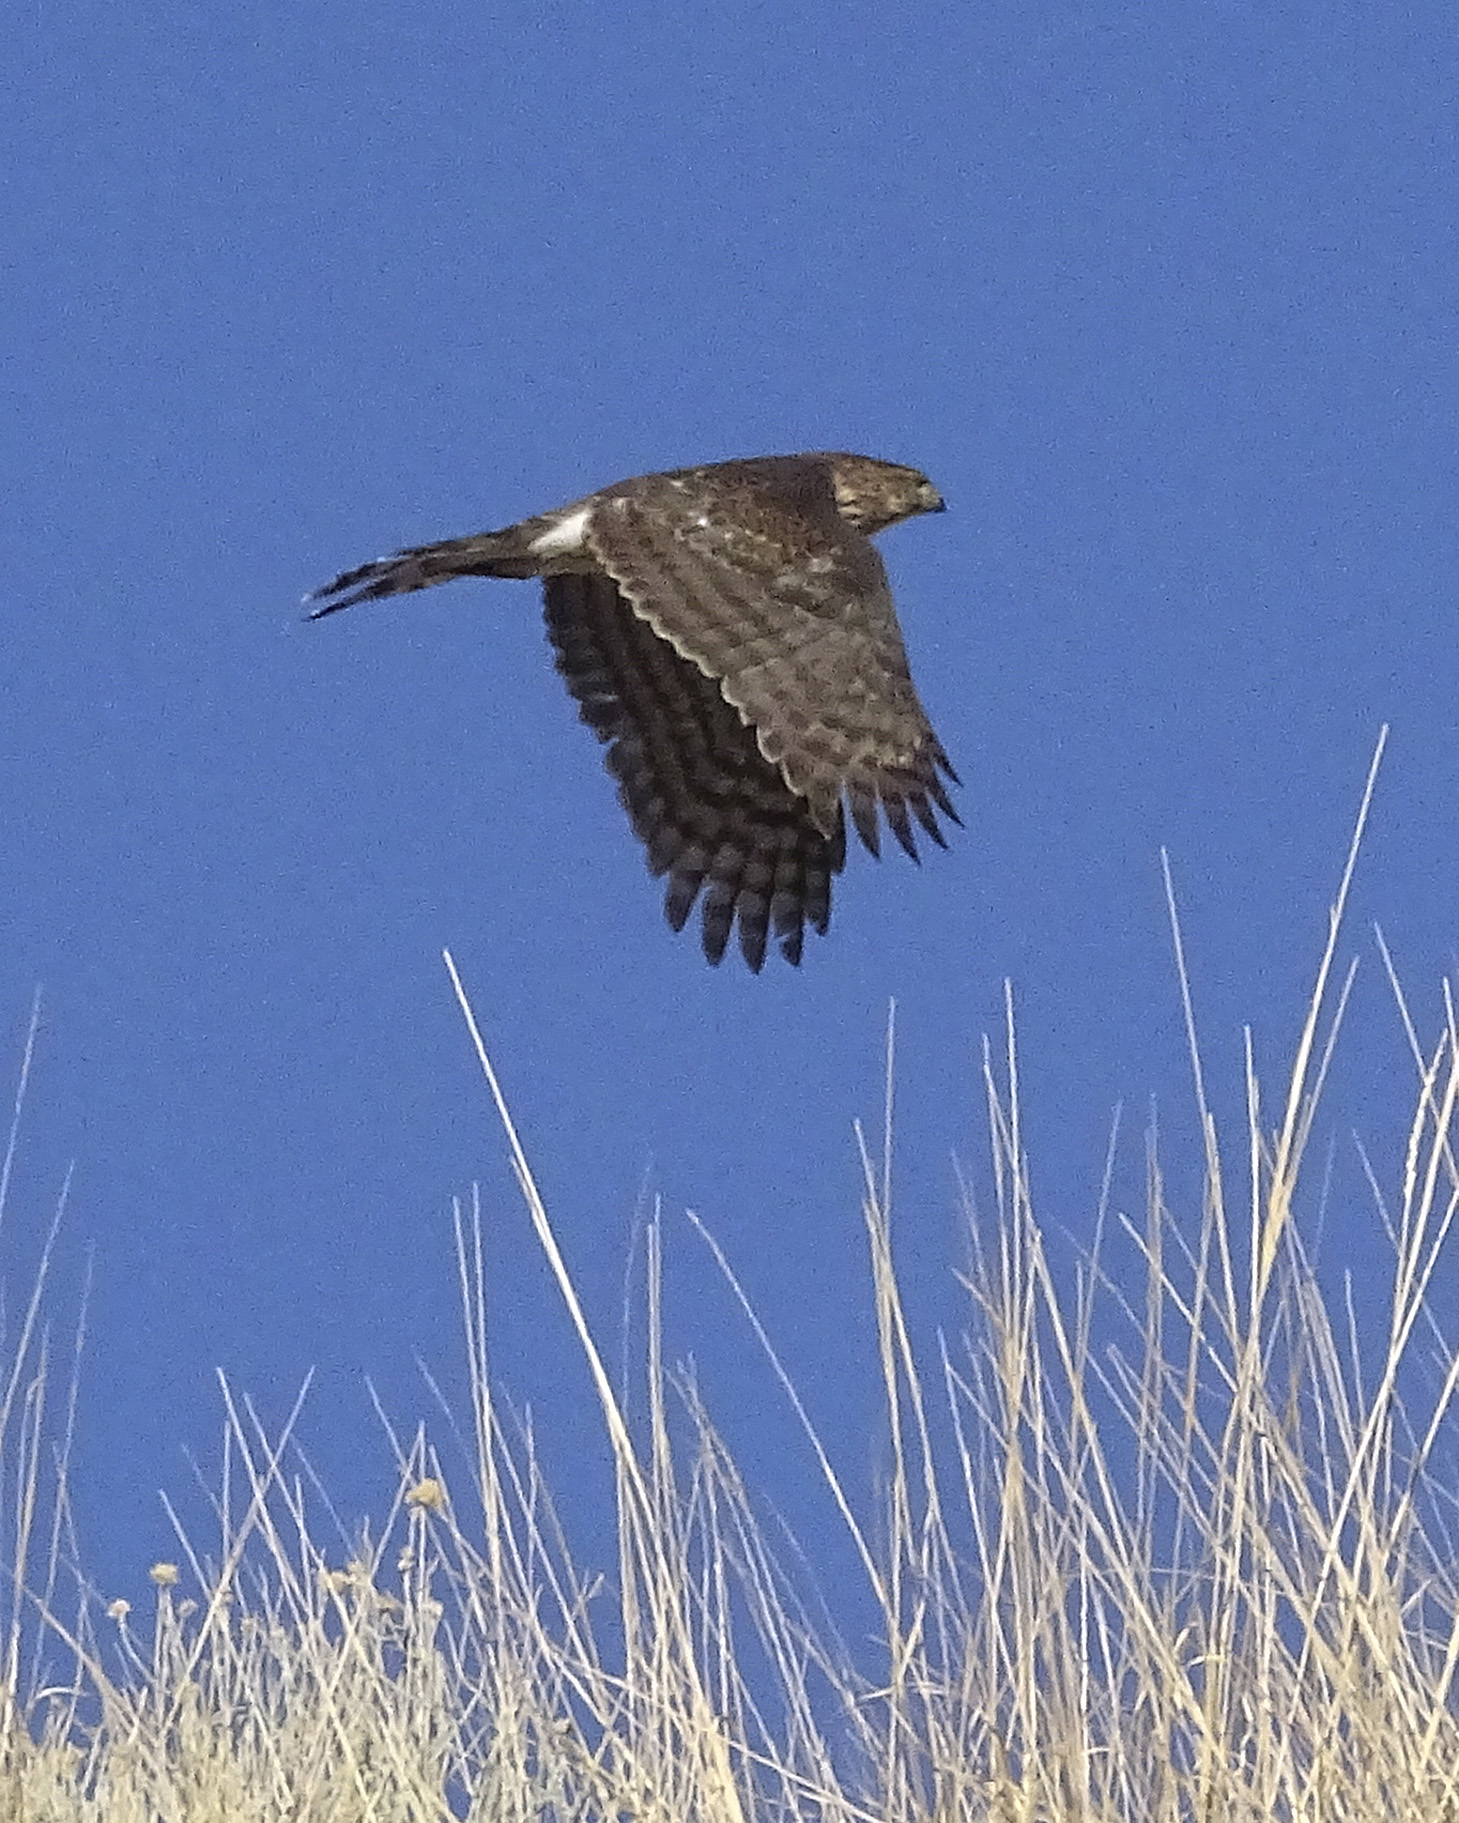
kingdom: Animalia
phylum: Chordata
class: Aves
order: Accipitriformes
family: Accipitridae
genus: Accipiter
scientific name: Accipiter cooperii
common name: Cooper's hawk
